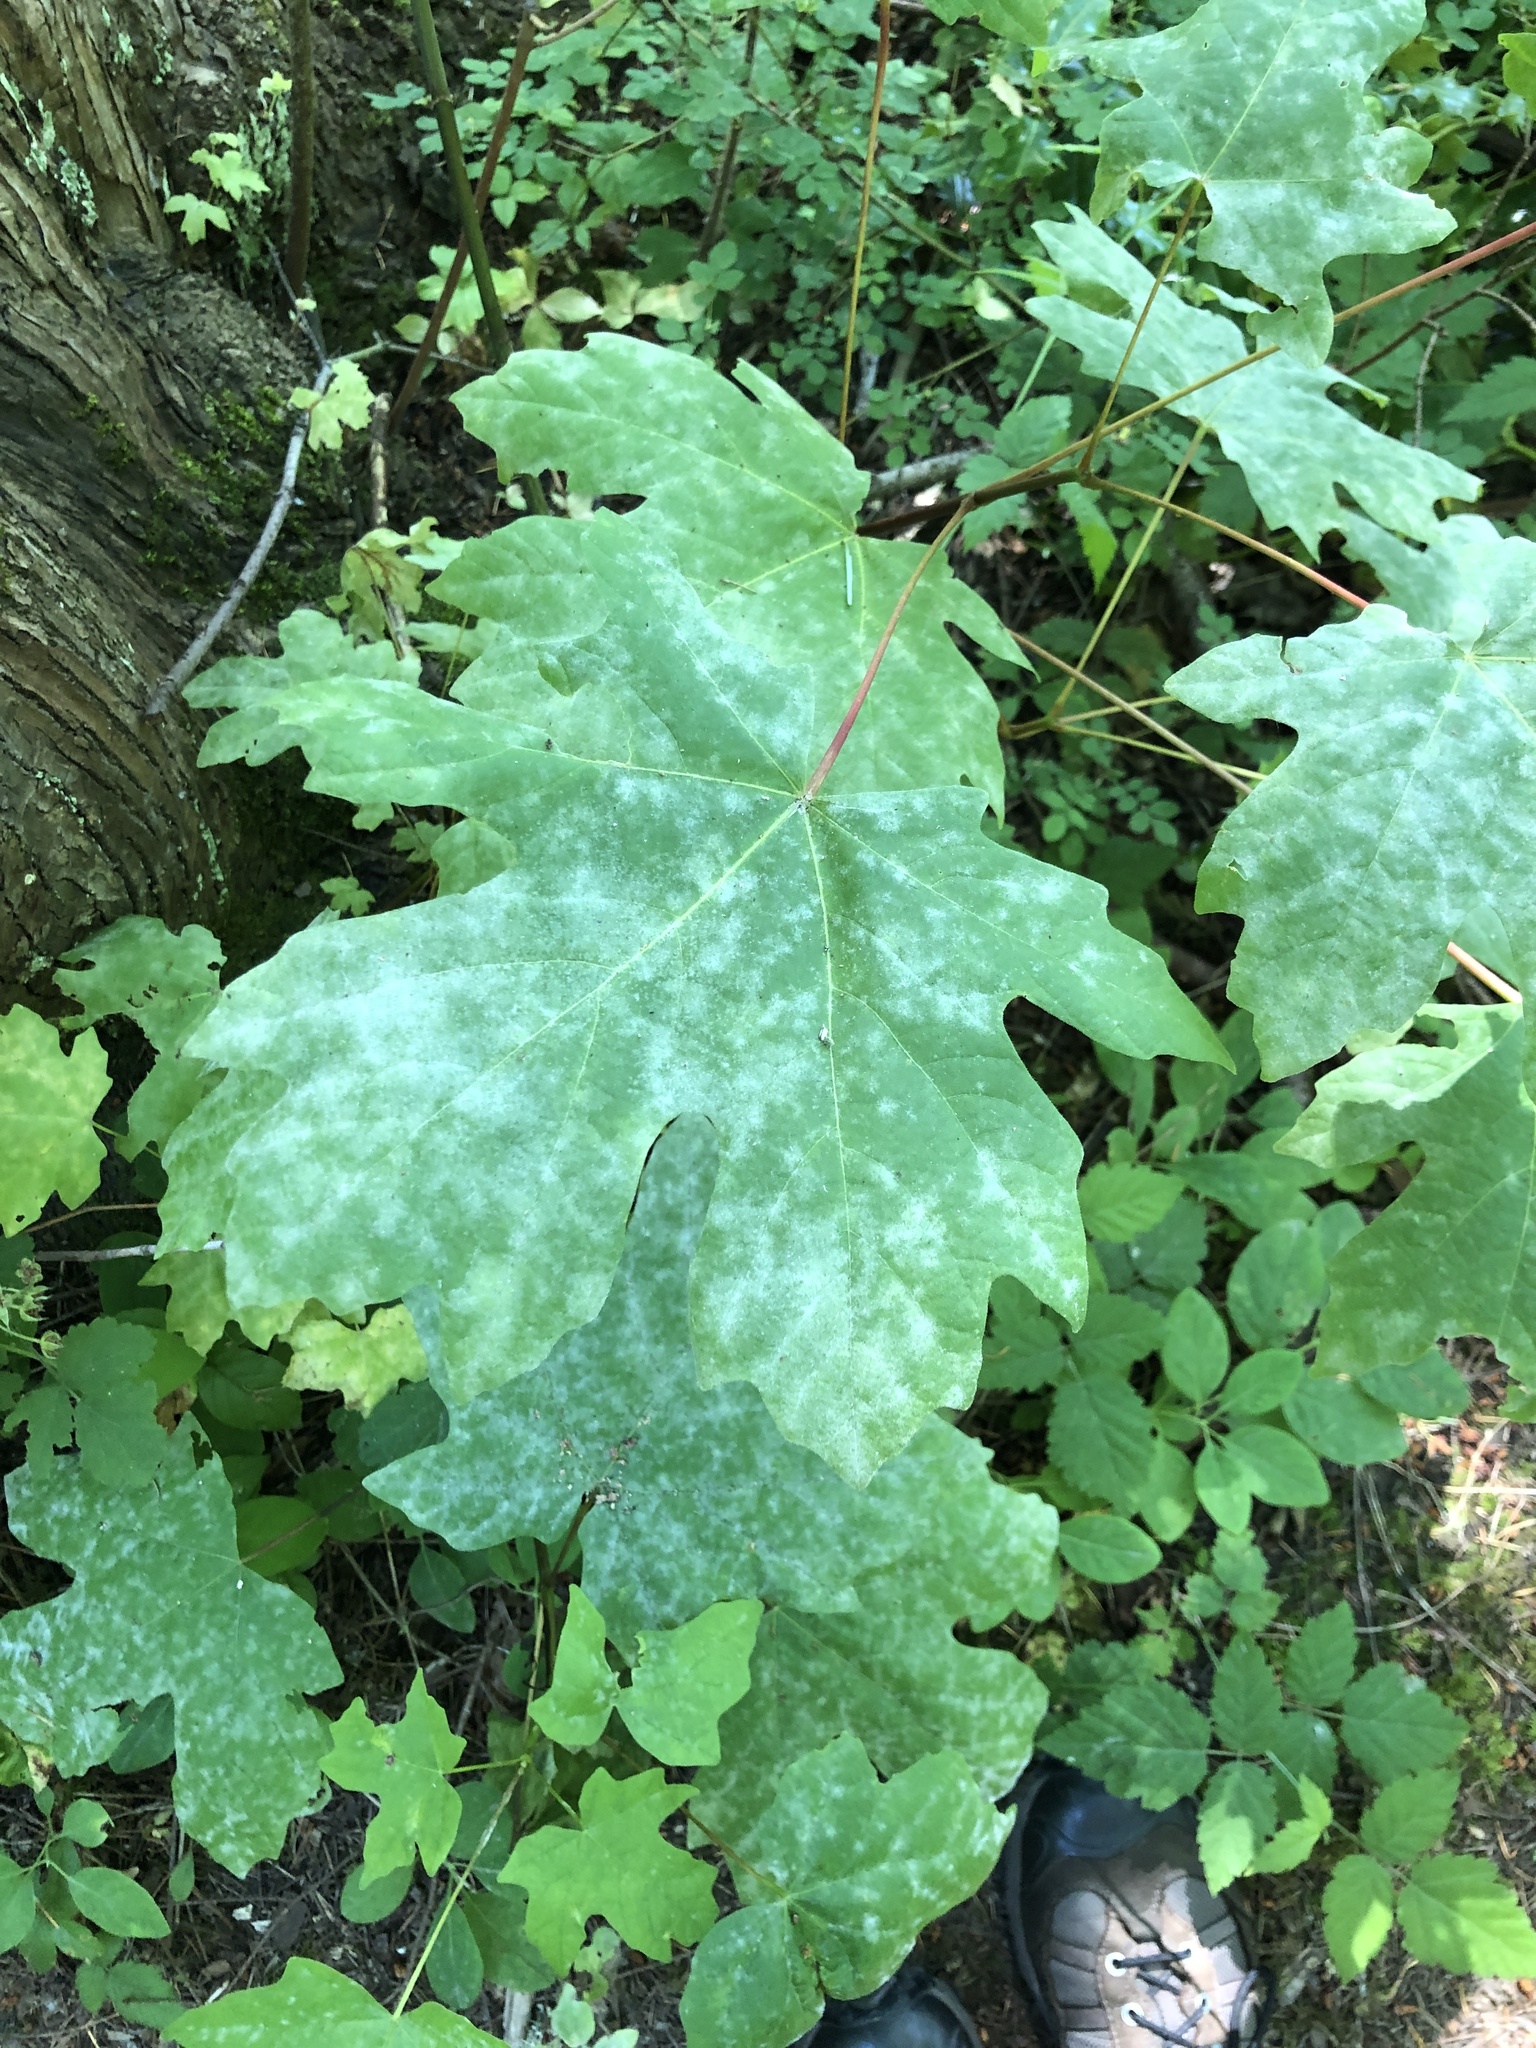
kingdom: Plantae
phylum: Tracheophyta
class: Magnoliopsida
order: Sapindales
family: Sapindaceae
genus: Acer
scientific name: Acer macrophyllum
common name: Oregon maple
